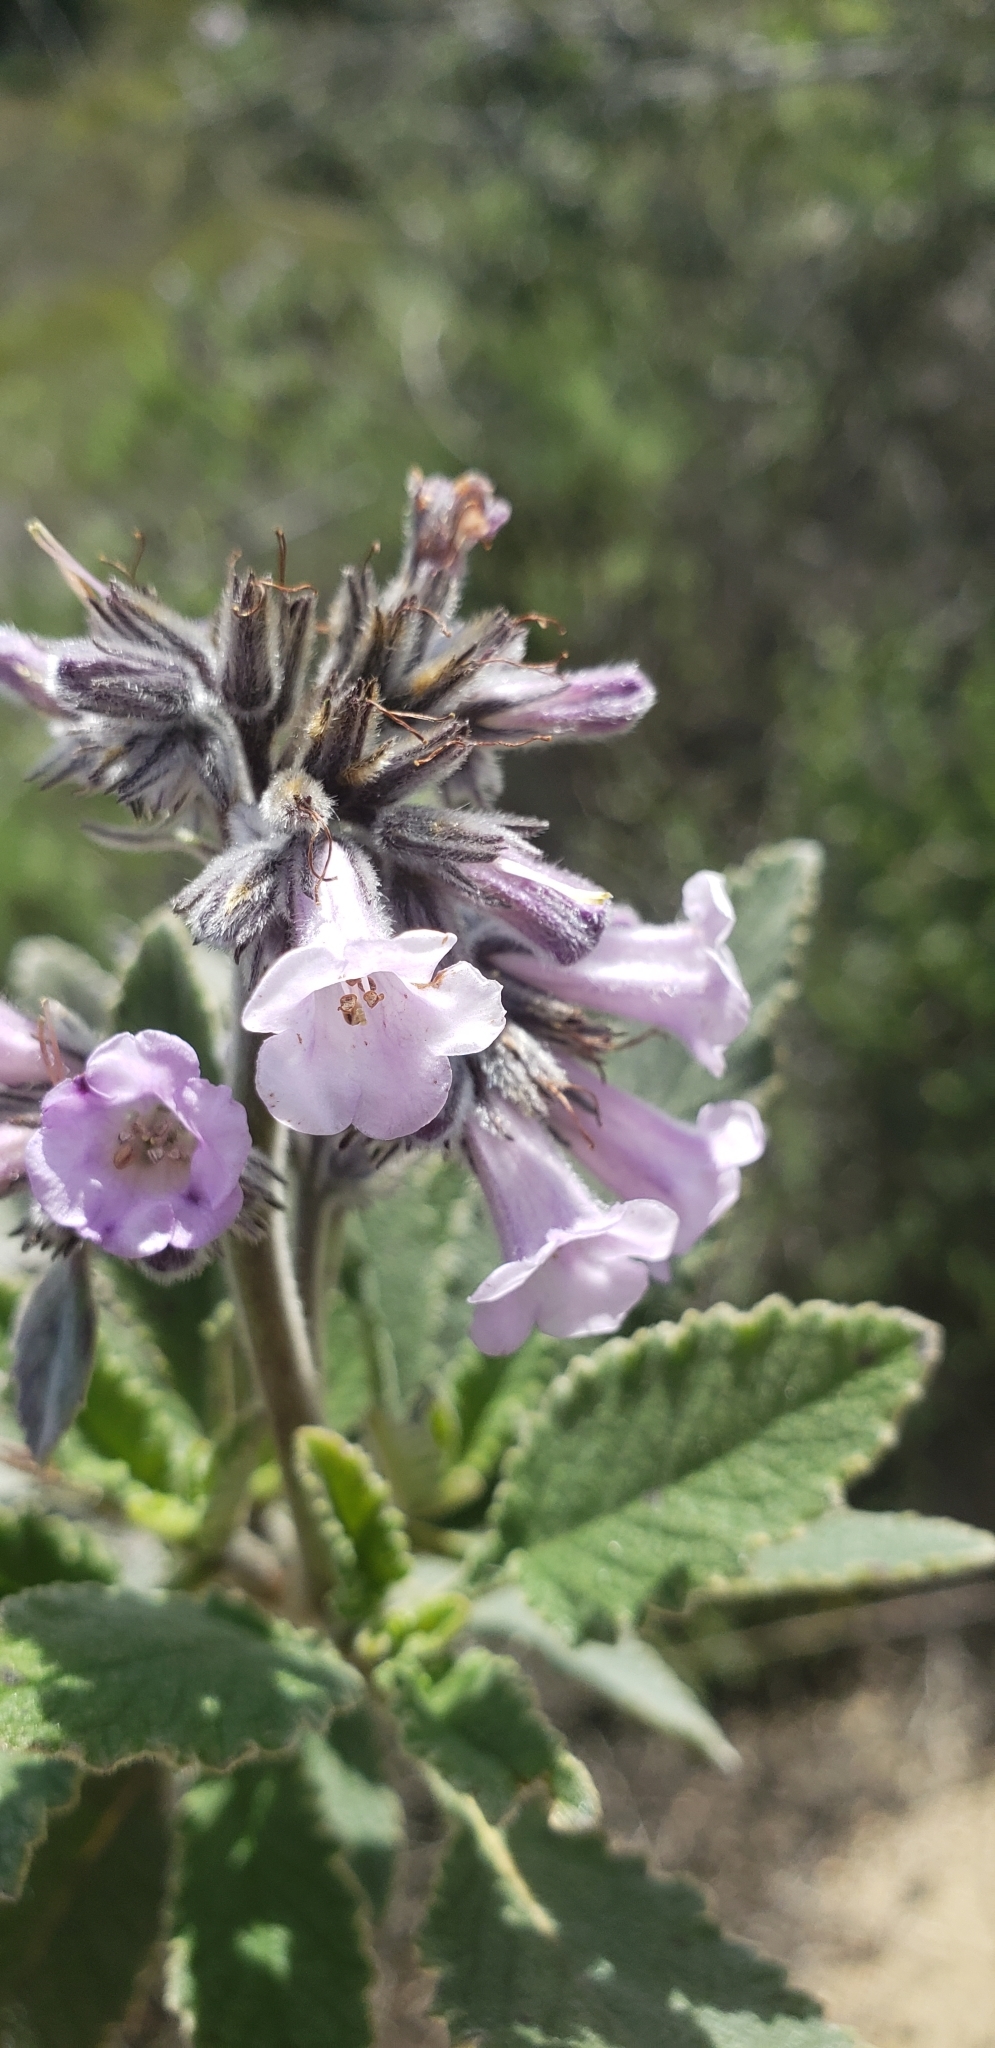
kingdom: Plantae
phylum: Tracheophyta
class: Magnoliopsida
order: Boraginales
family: Namaceae
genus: Eriodictyon
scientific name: Eriodictyon crassifolium
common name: Thick-leaf yerba-santa
